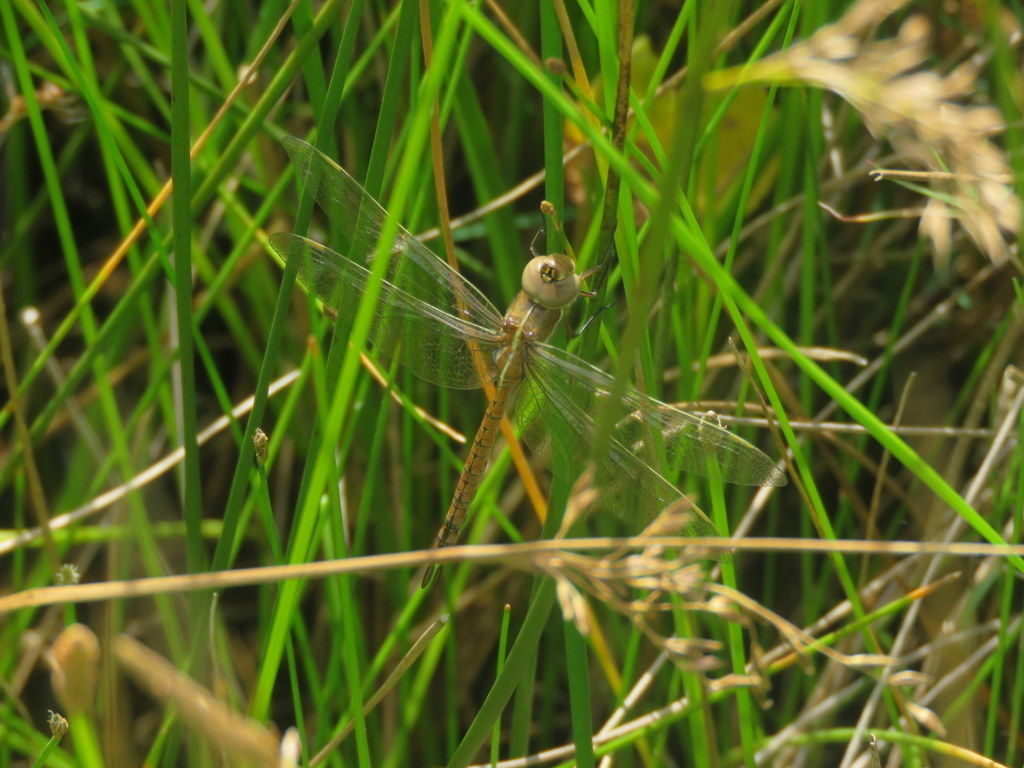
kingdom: Animalia
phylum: Arthropoda
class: Insecta
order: Odonata
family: Aeshnidae
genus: Rhionaeschna
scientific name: Rhionaeschna bonariensis
